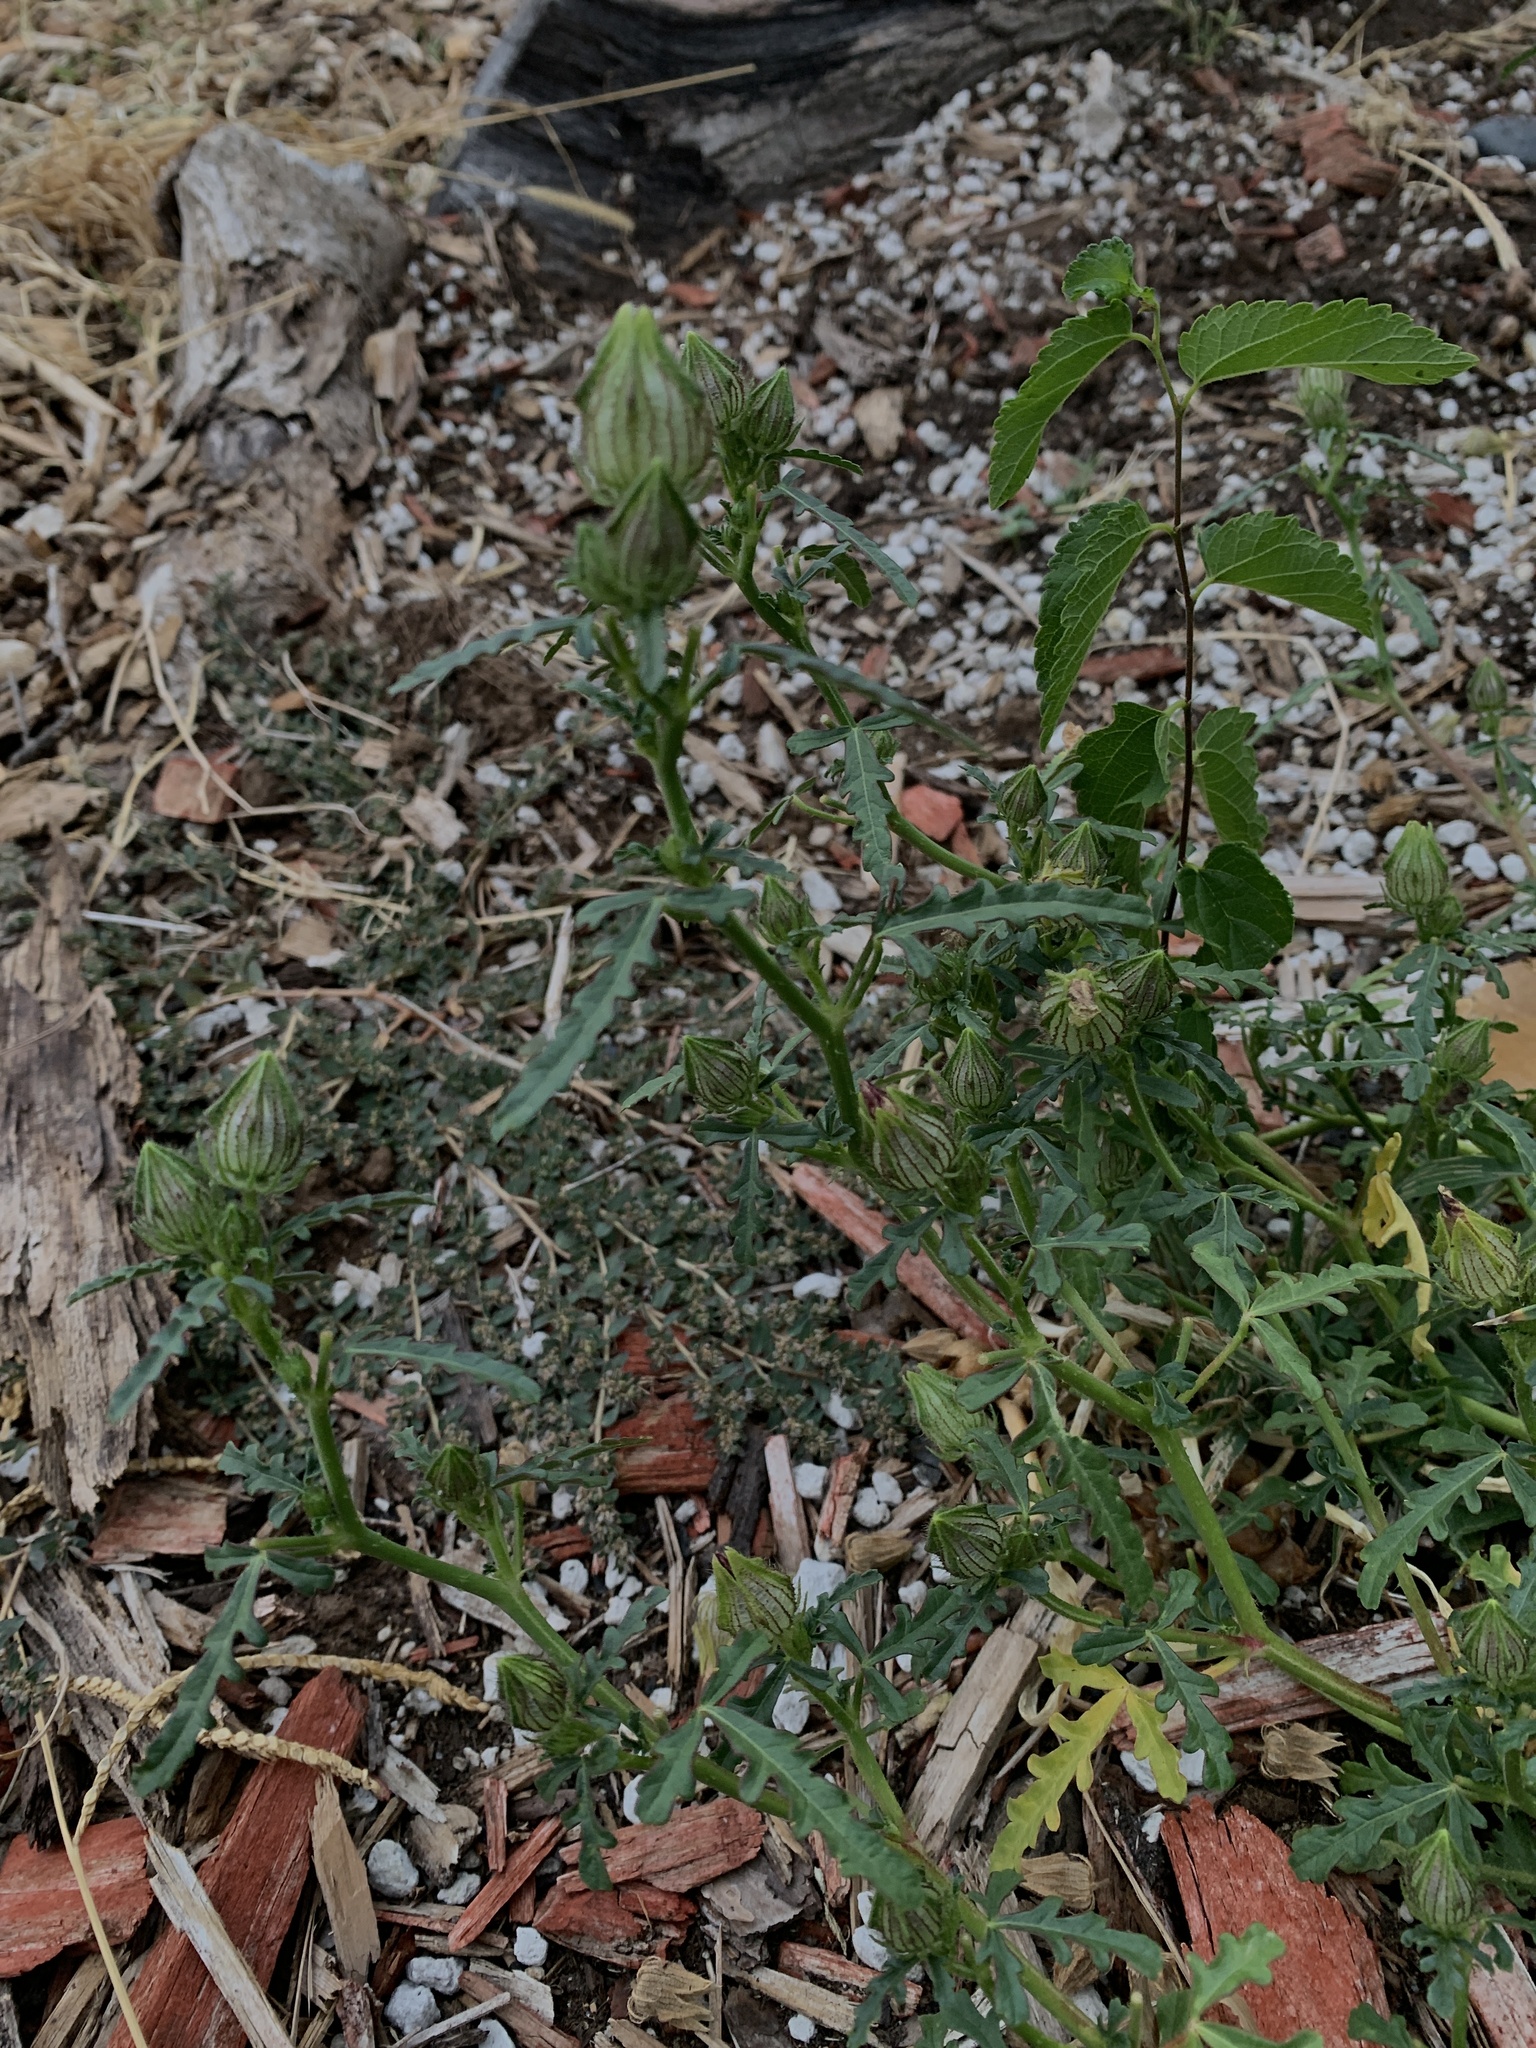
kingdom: Plantae
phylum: Tracheophyta
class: Magnoliopsida
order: Malvales
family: Malvaceae
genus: Hibiscus
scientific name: Hibiscus trionum
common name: Bladder ketmia
